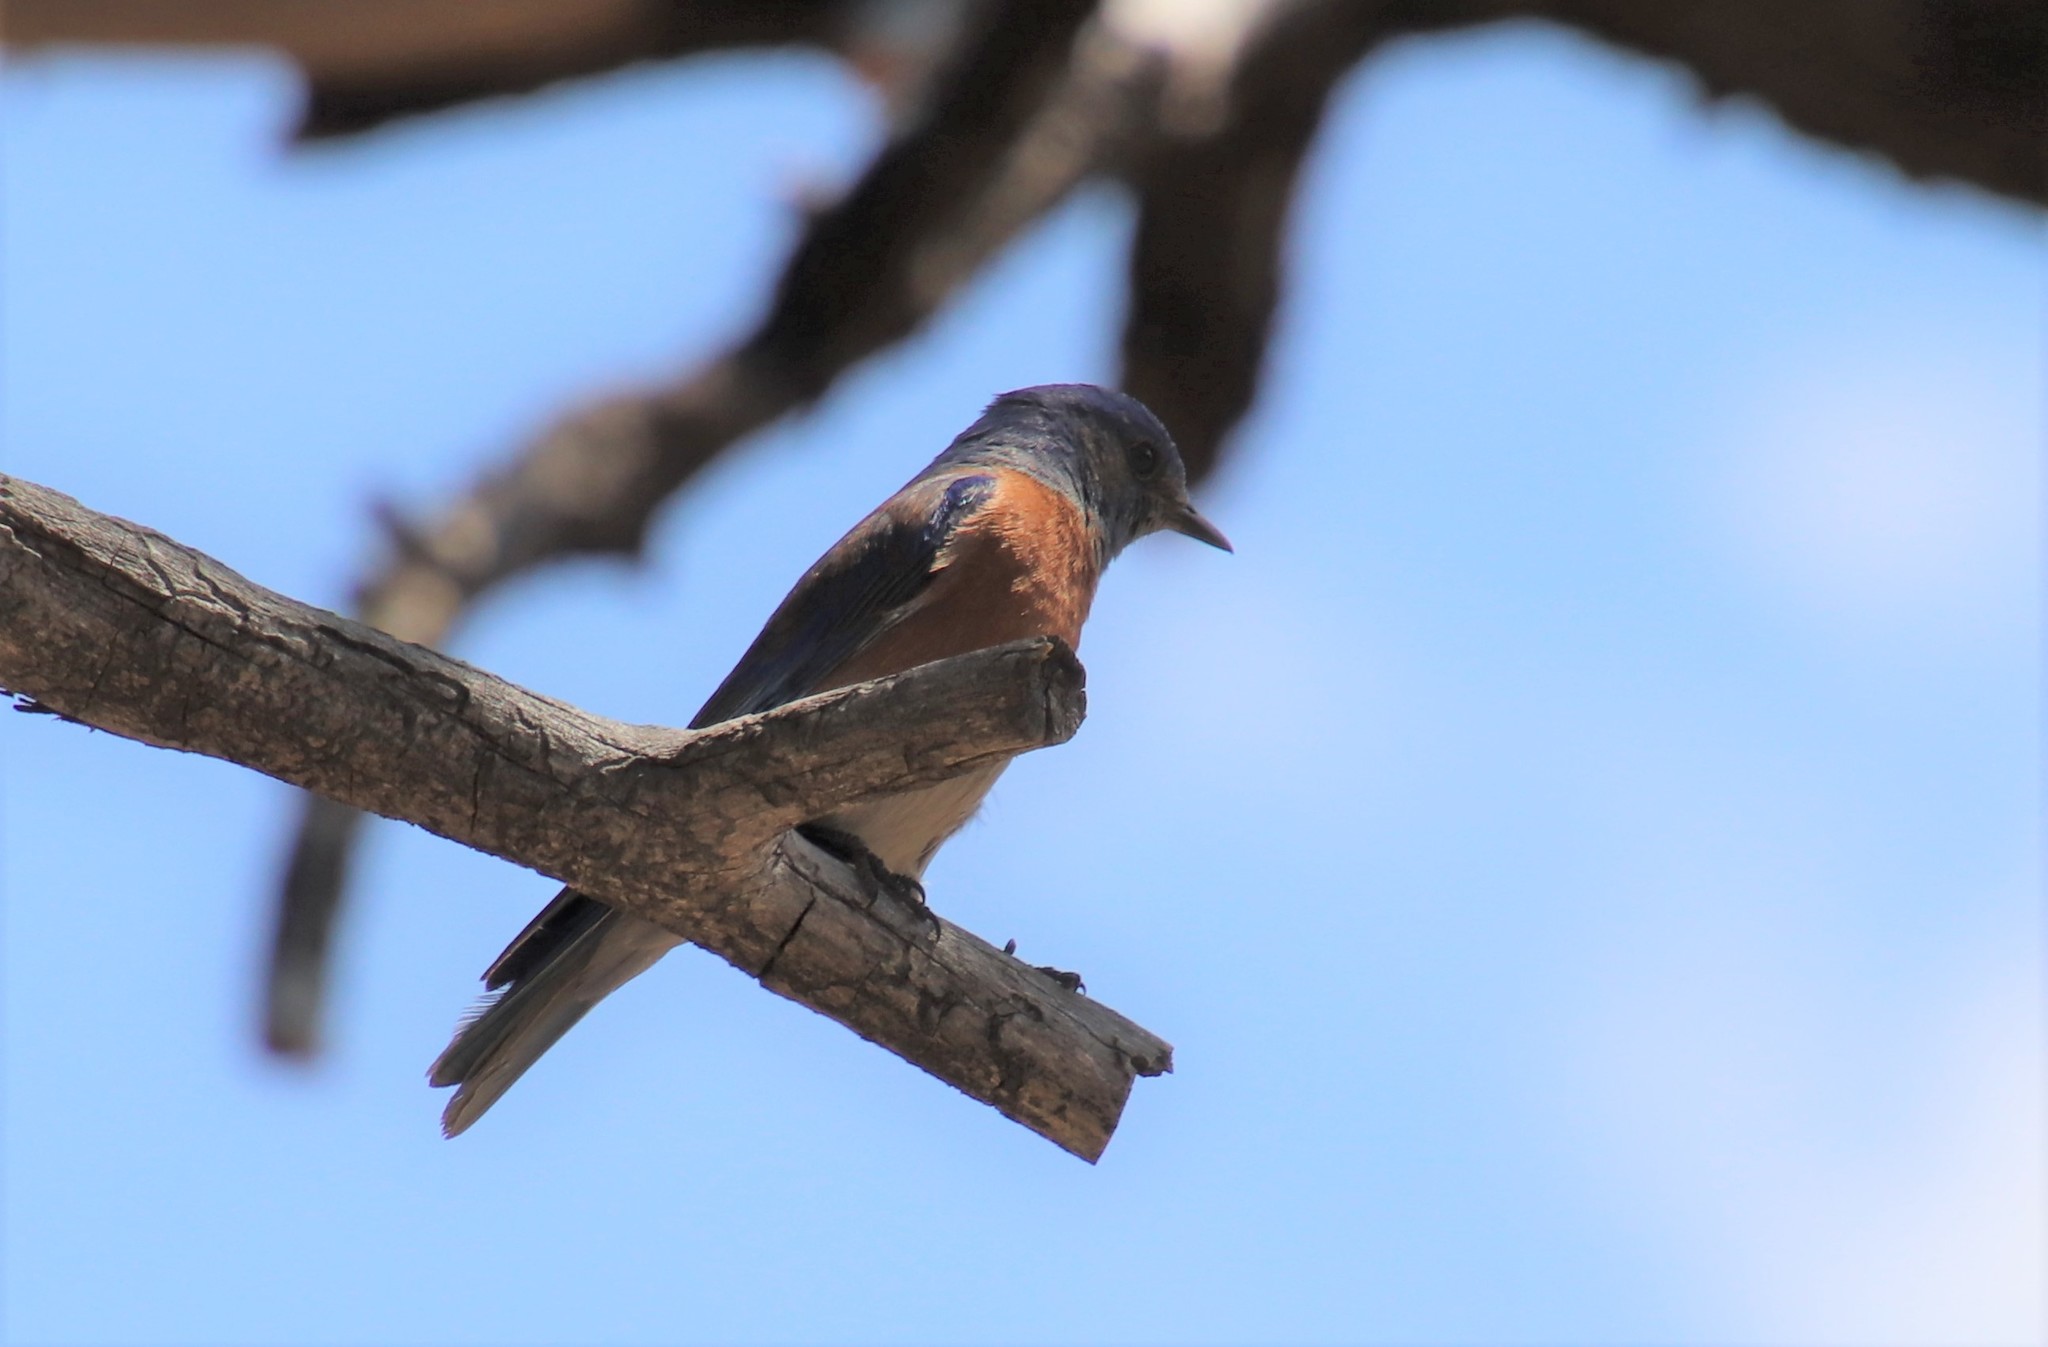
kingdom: Animalia
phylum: Chordata
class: Aves
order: Passeriformes
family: Turdidae
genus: Sialia
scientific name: Sialia mexicana
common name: Western bluebird
